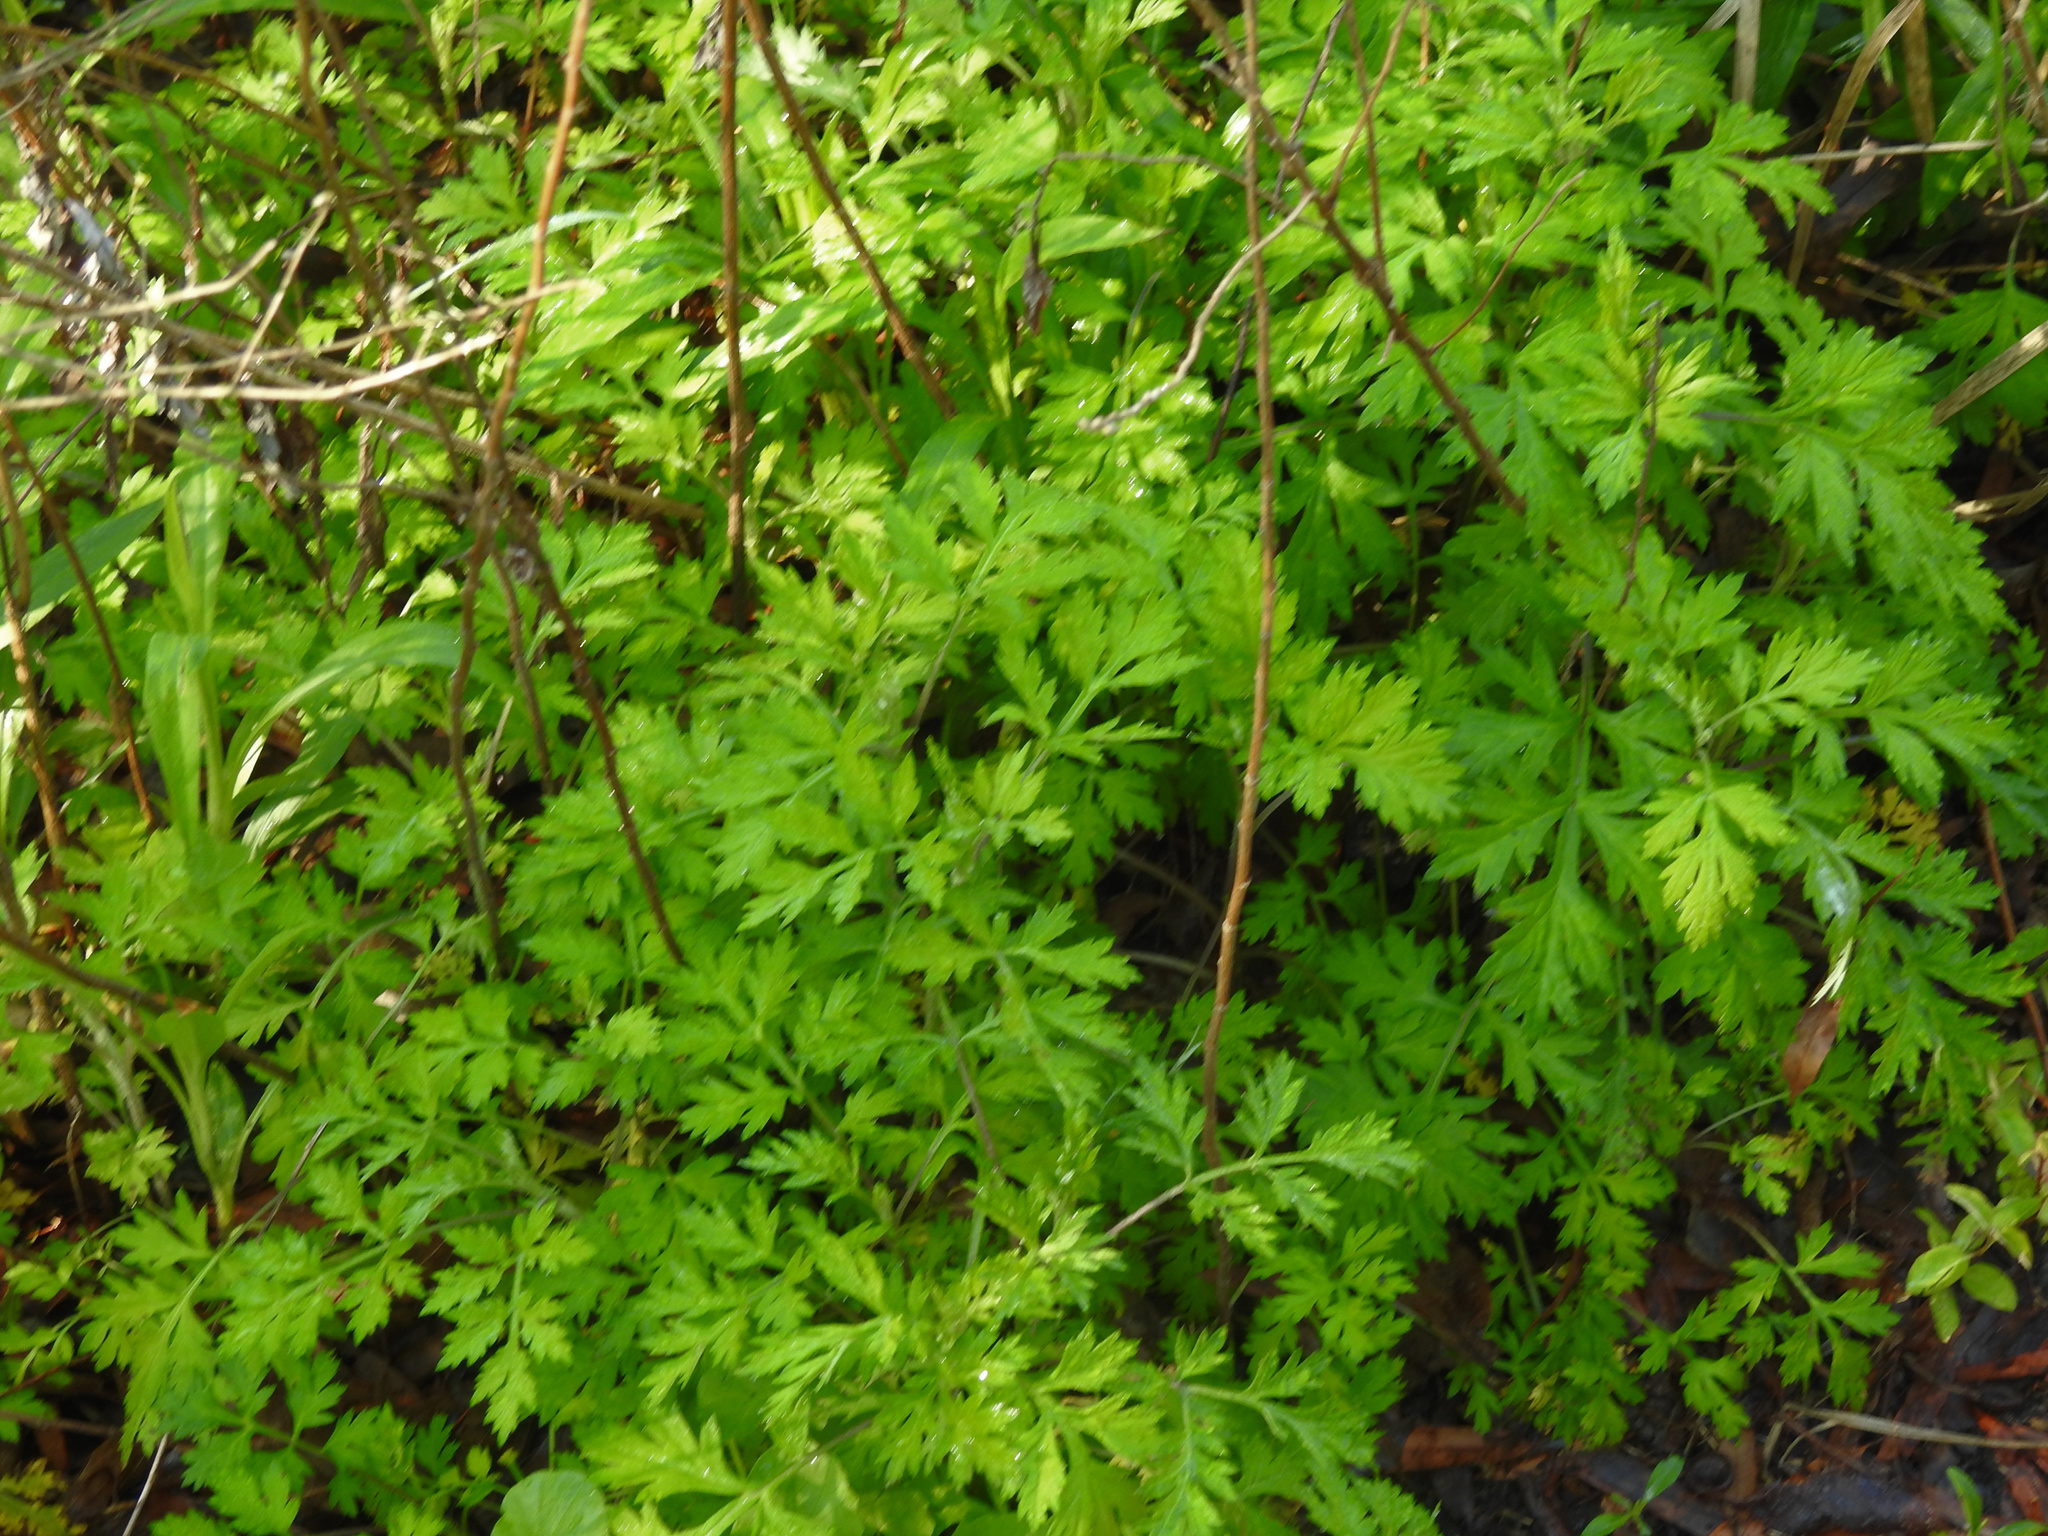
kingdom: Plantae
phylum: Tracheophyta
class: Magnoliopsida
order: Asterales
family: Asteraceae
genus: Artemisia
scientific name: Artemisia vulgaris
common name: Mugwort
